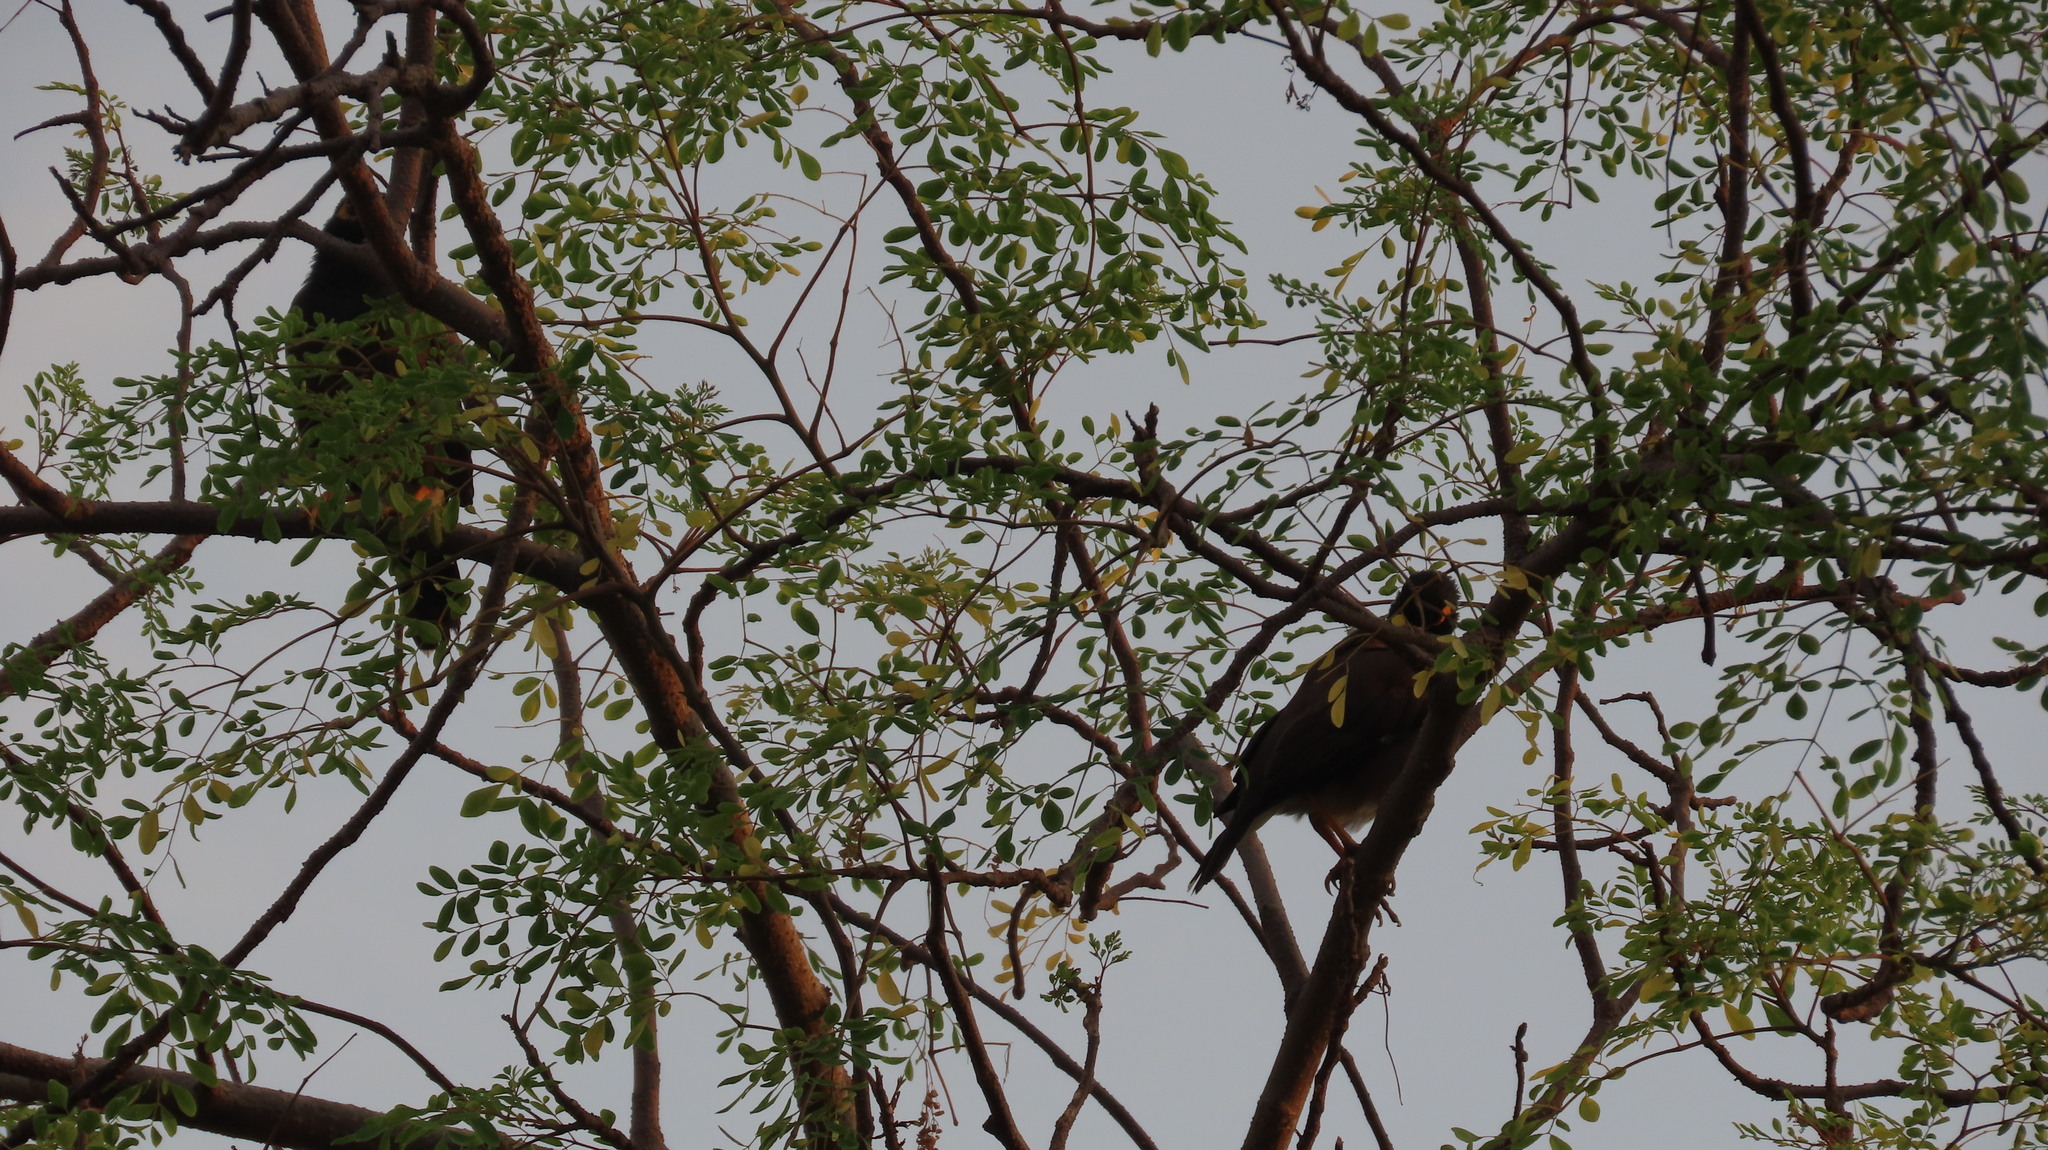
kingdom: Animalia
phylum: Chordata
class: Aves
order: Passeriformes
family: Sturnidae
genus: Acridotheres
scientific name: Acridotheres tristis
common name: Common myna
